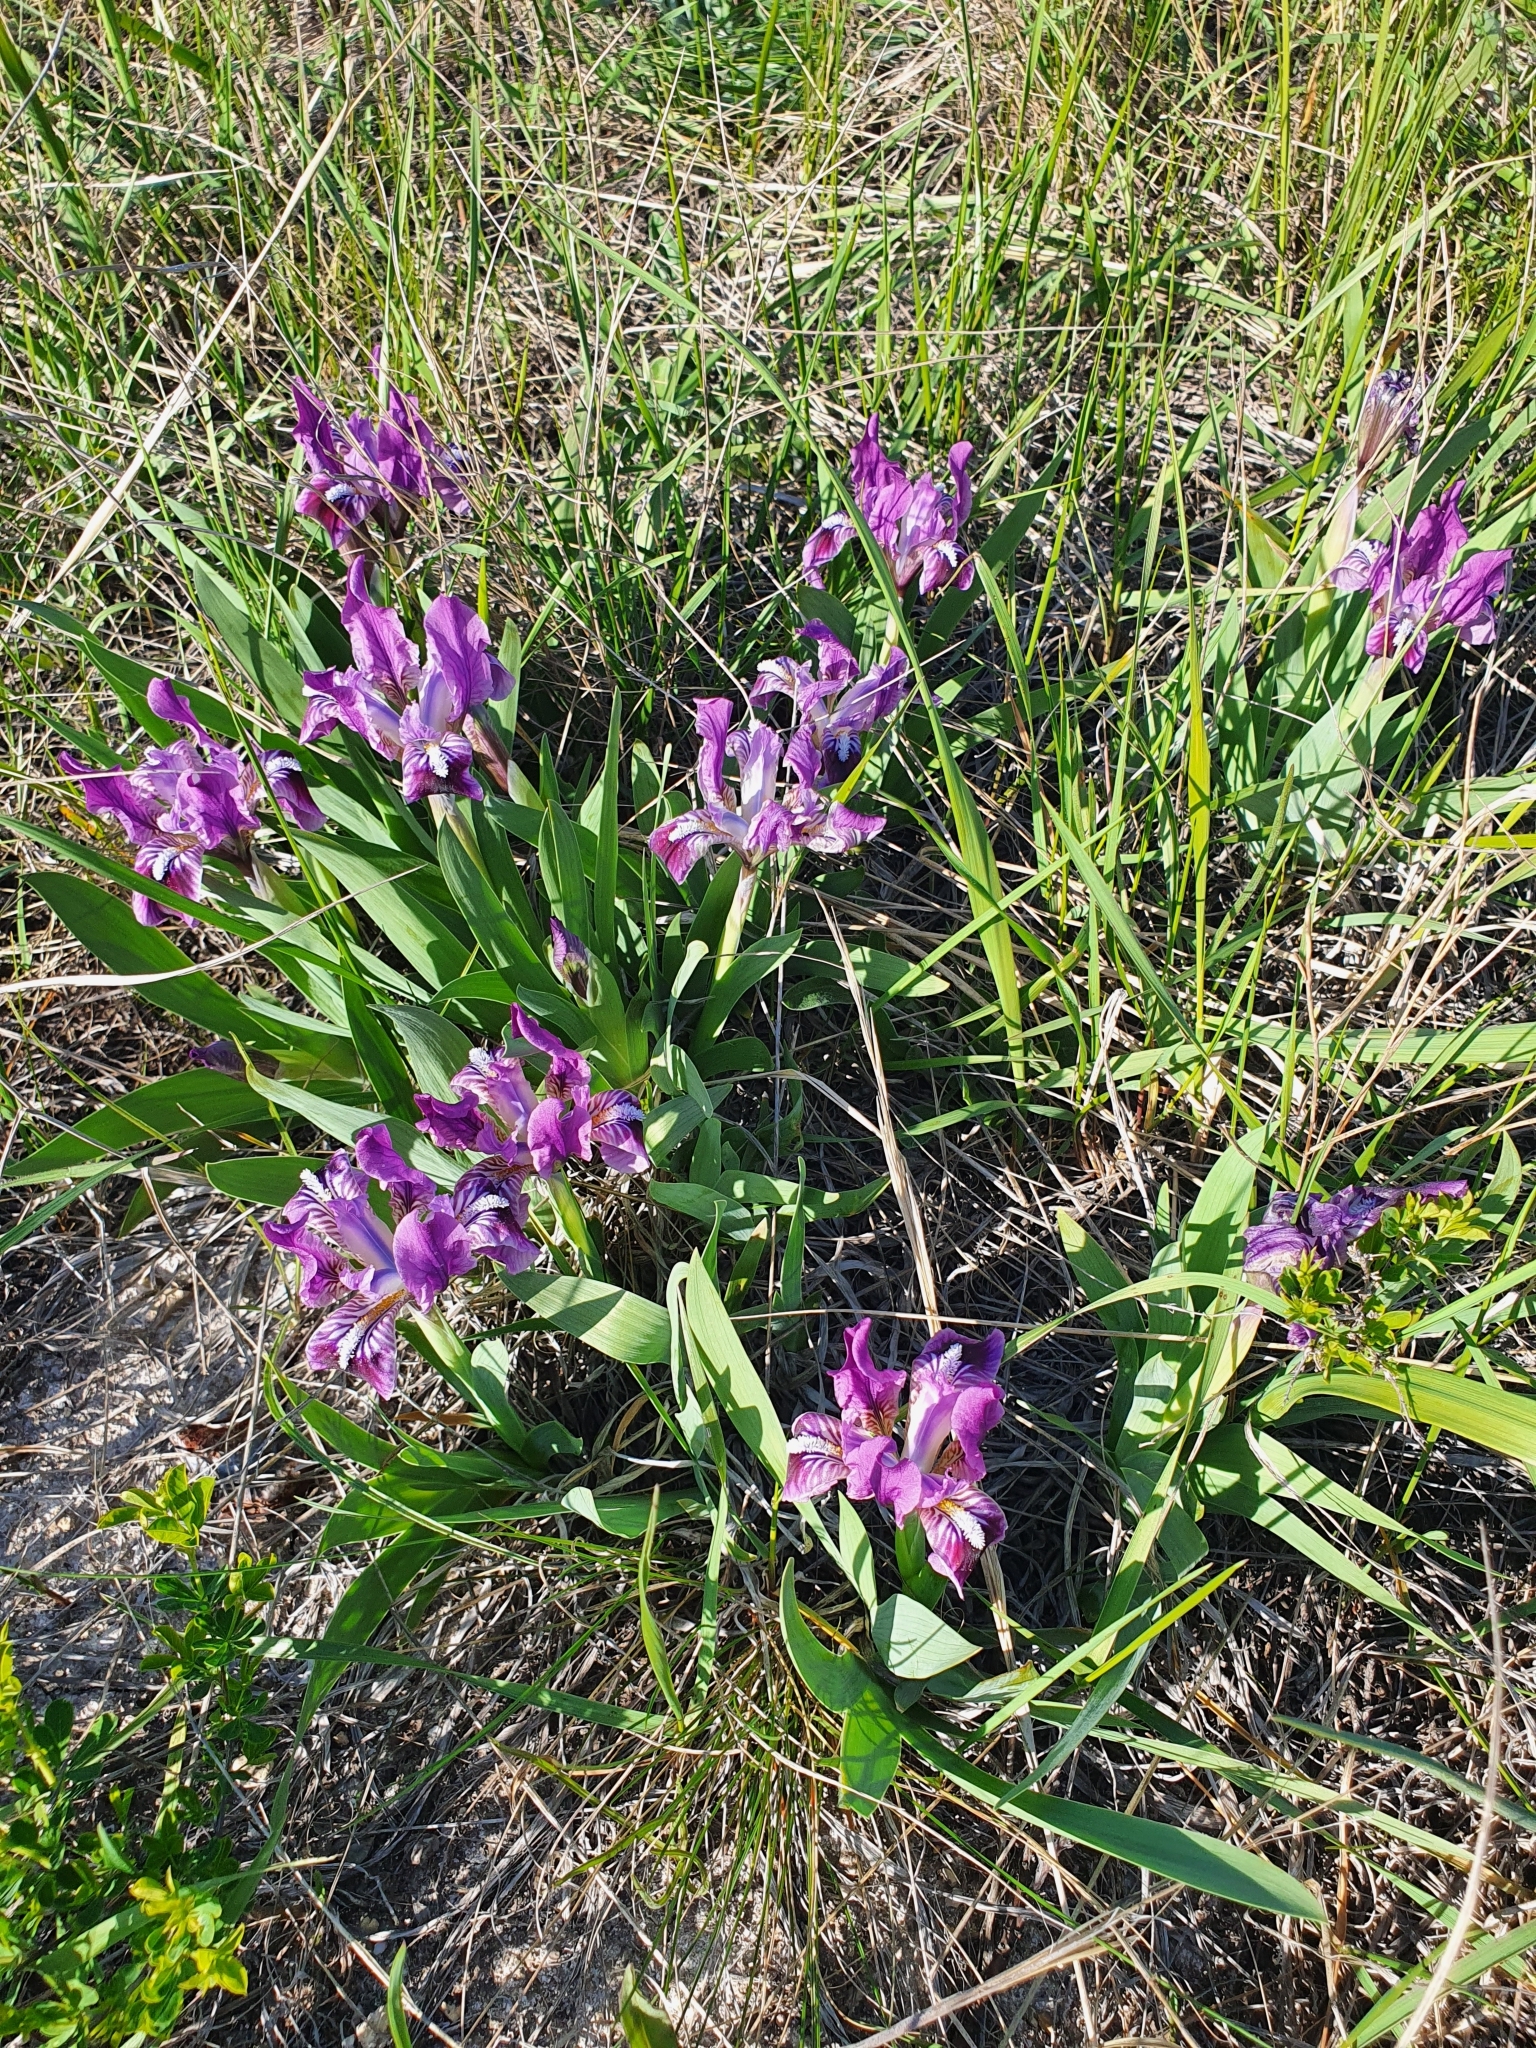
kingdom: Plantae
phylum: Tracheophyta
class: Liliopsida
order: Asparagales
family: Iridaceae
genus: Iris
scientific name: Iris pumila
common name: Dwarf iris
